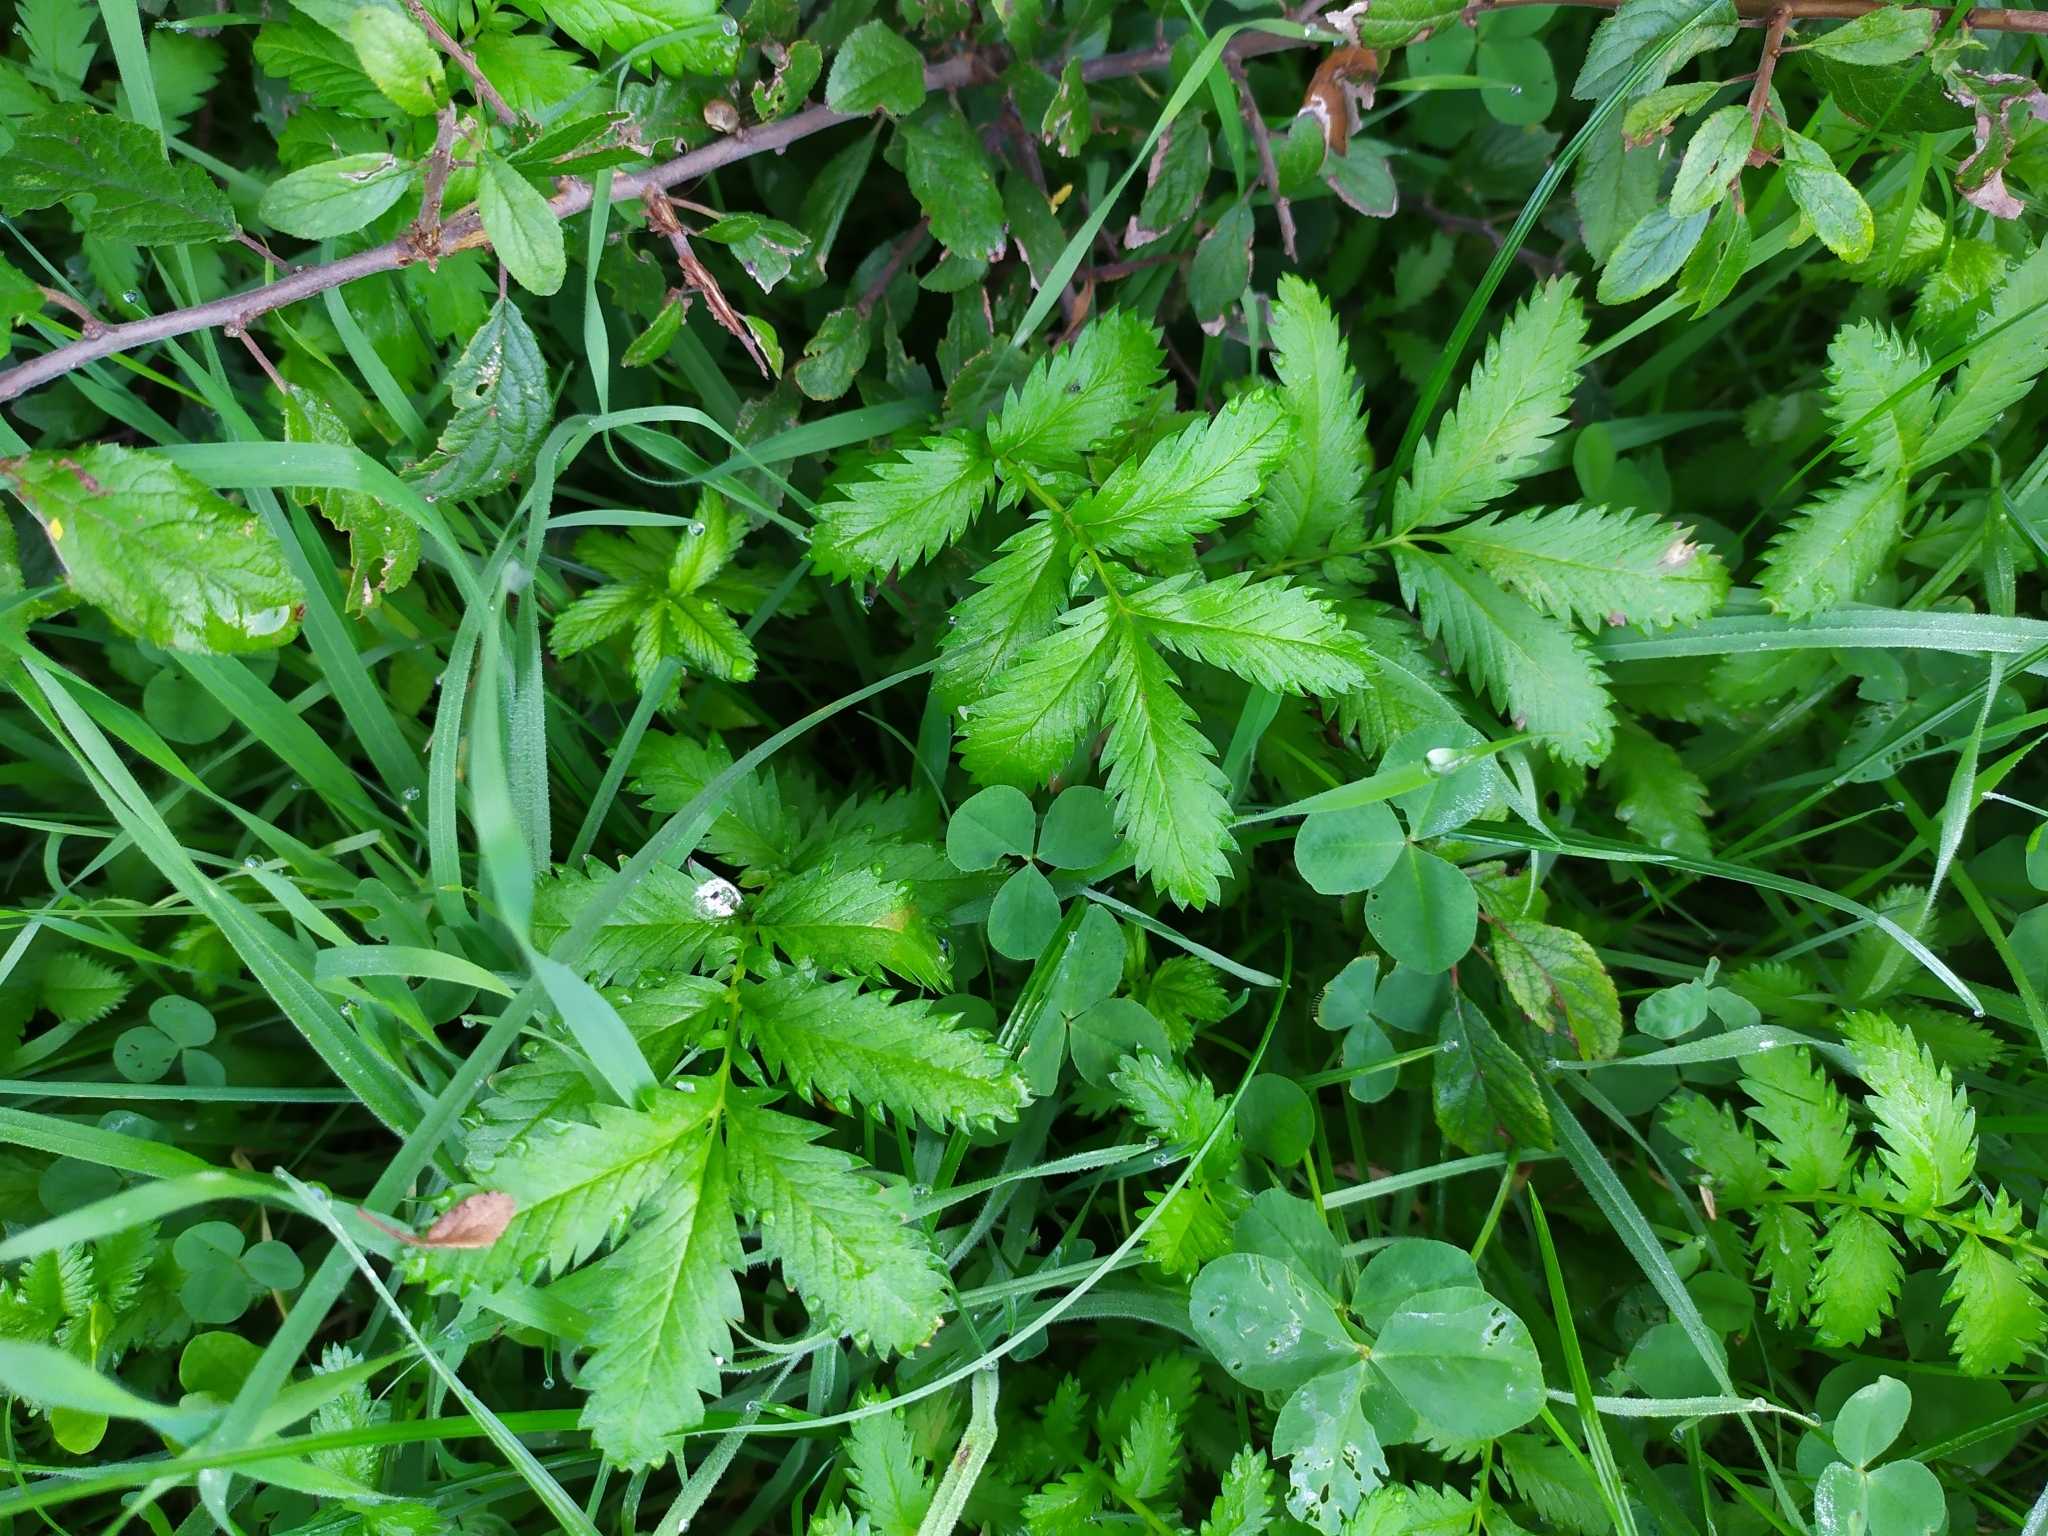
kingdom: Plantae
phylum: Tracheophyta
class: Magnoliopsida
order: Rosales
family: Rosaceae
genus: Argentina
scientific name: Argentina anserina
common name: Common silverweed
